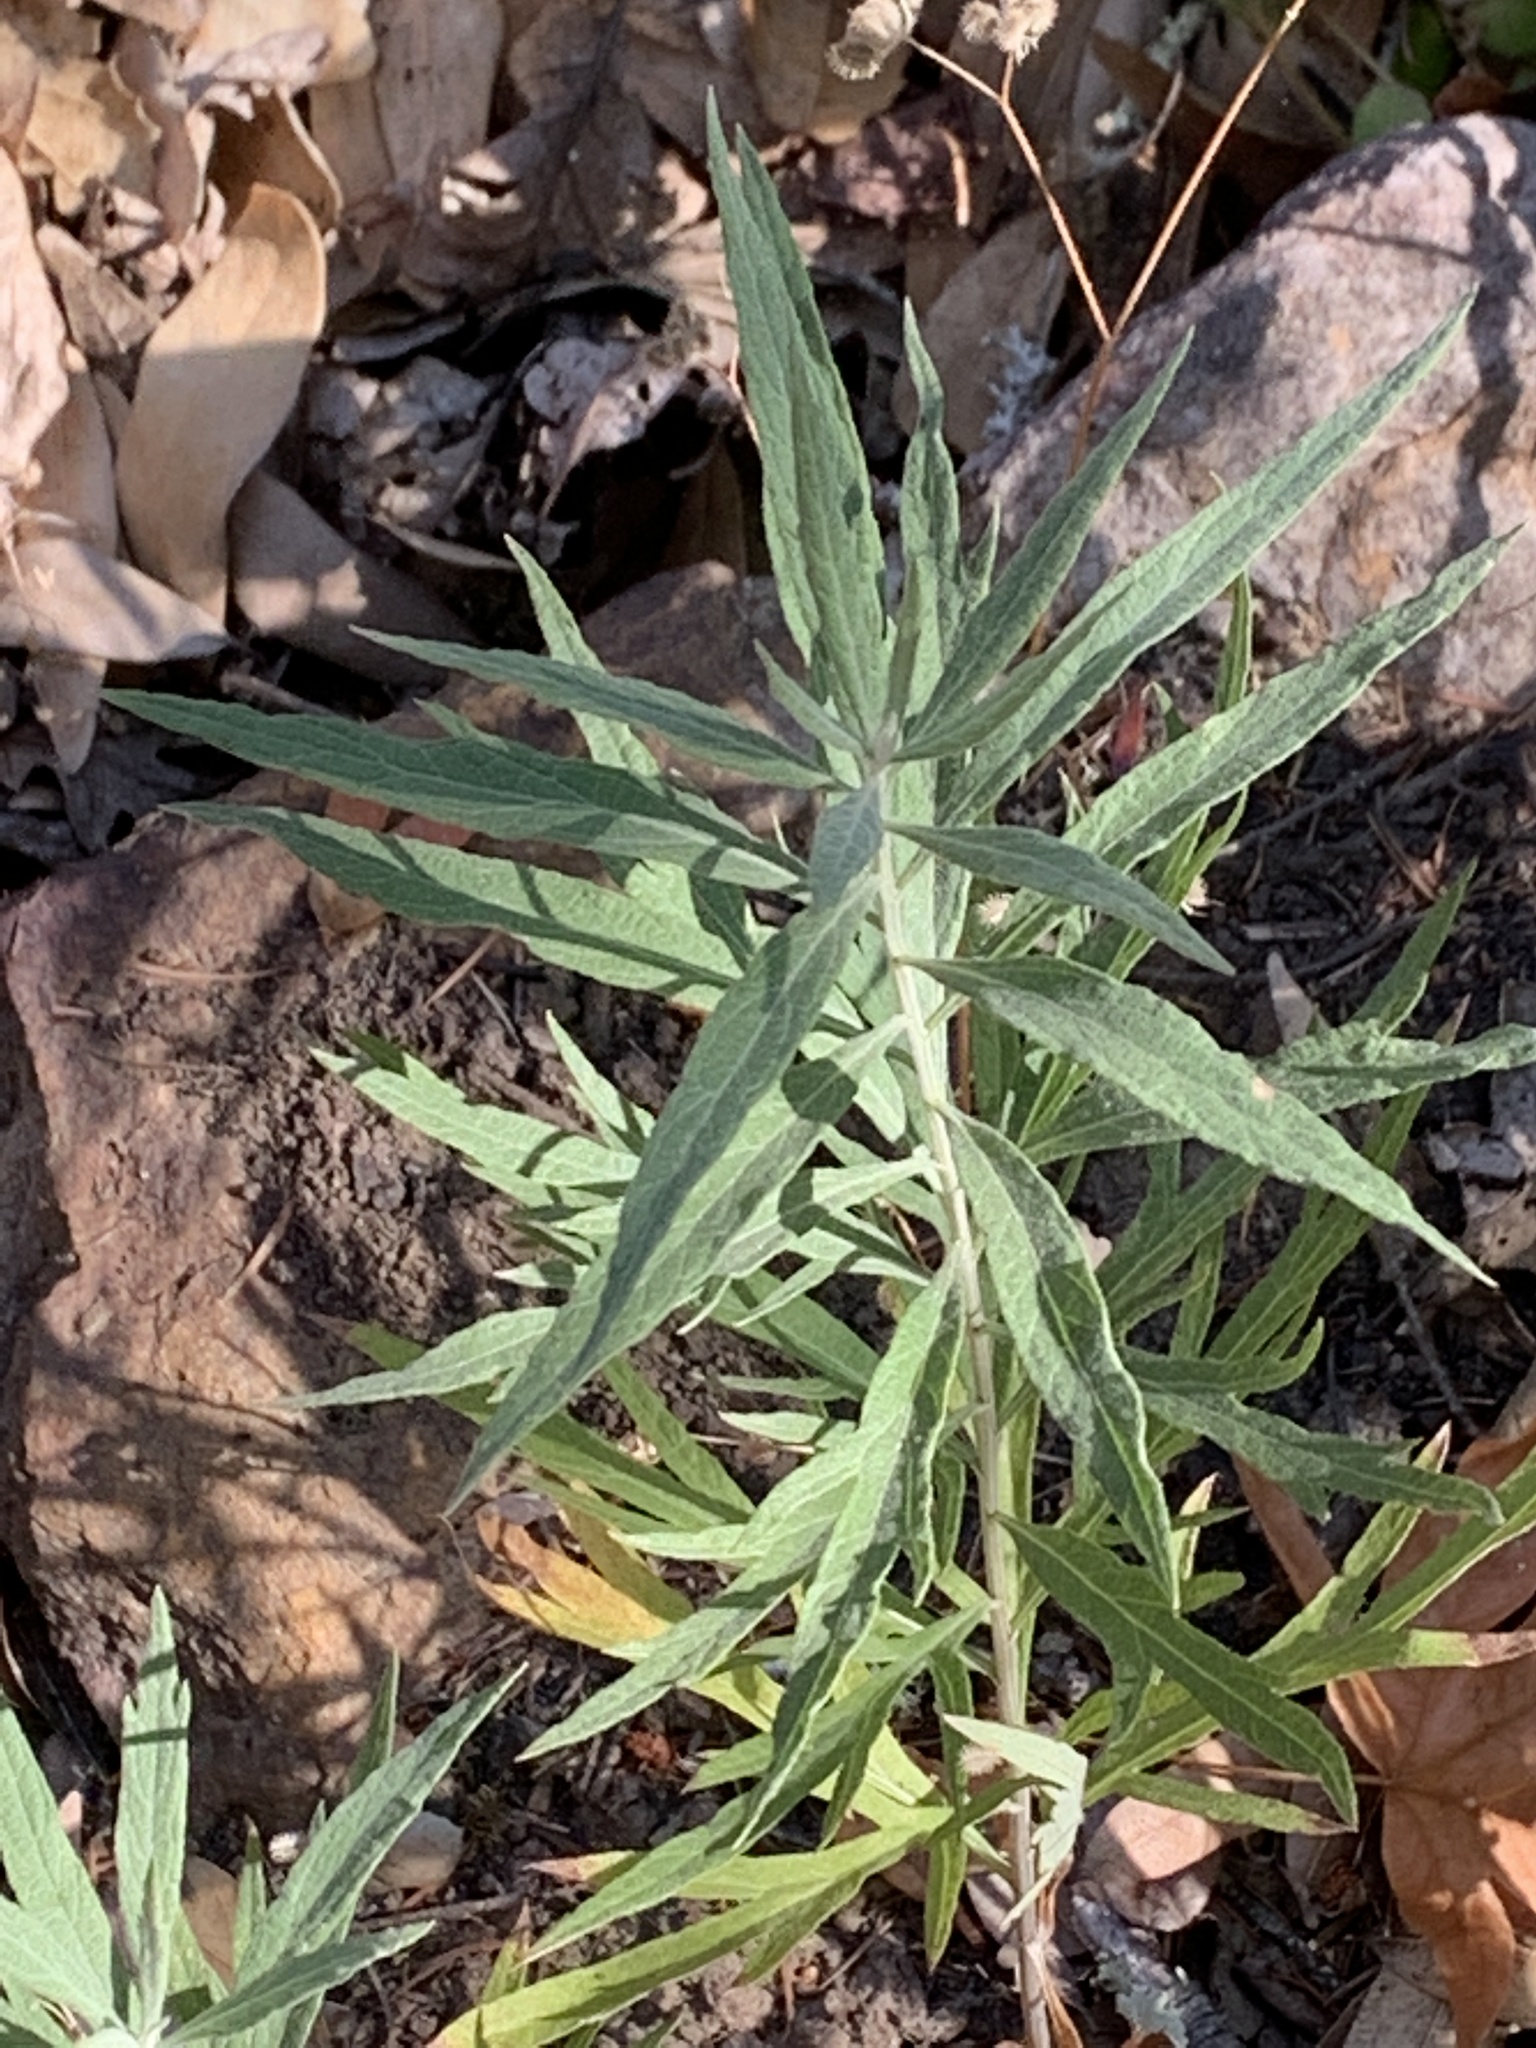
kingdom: Plantae
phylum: Tracheophyta
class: Magnoliopsida
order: Asterales
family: Asteraceae
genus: Artemisia
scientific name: Artemisia douglasiana
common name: Northwest mugwort
